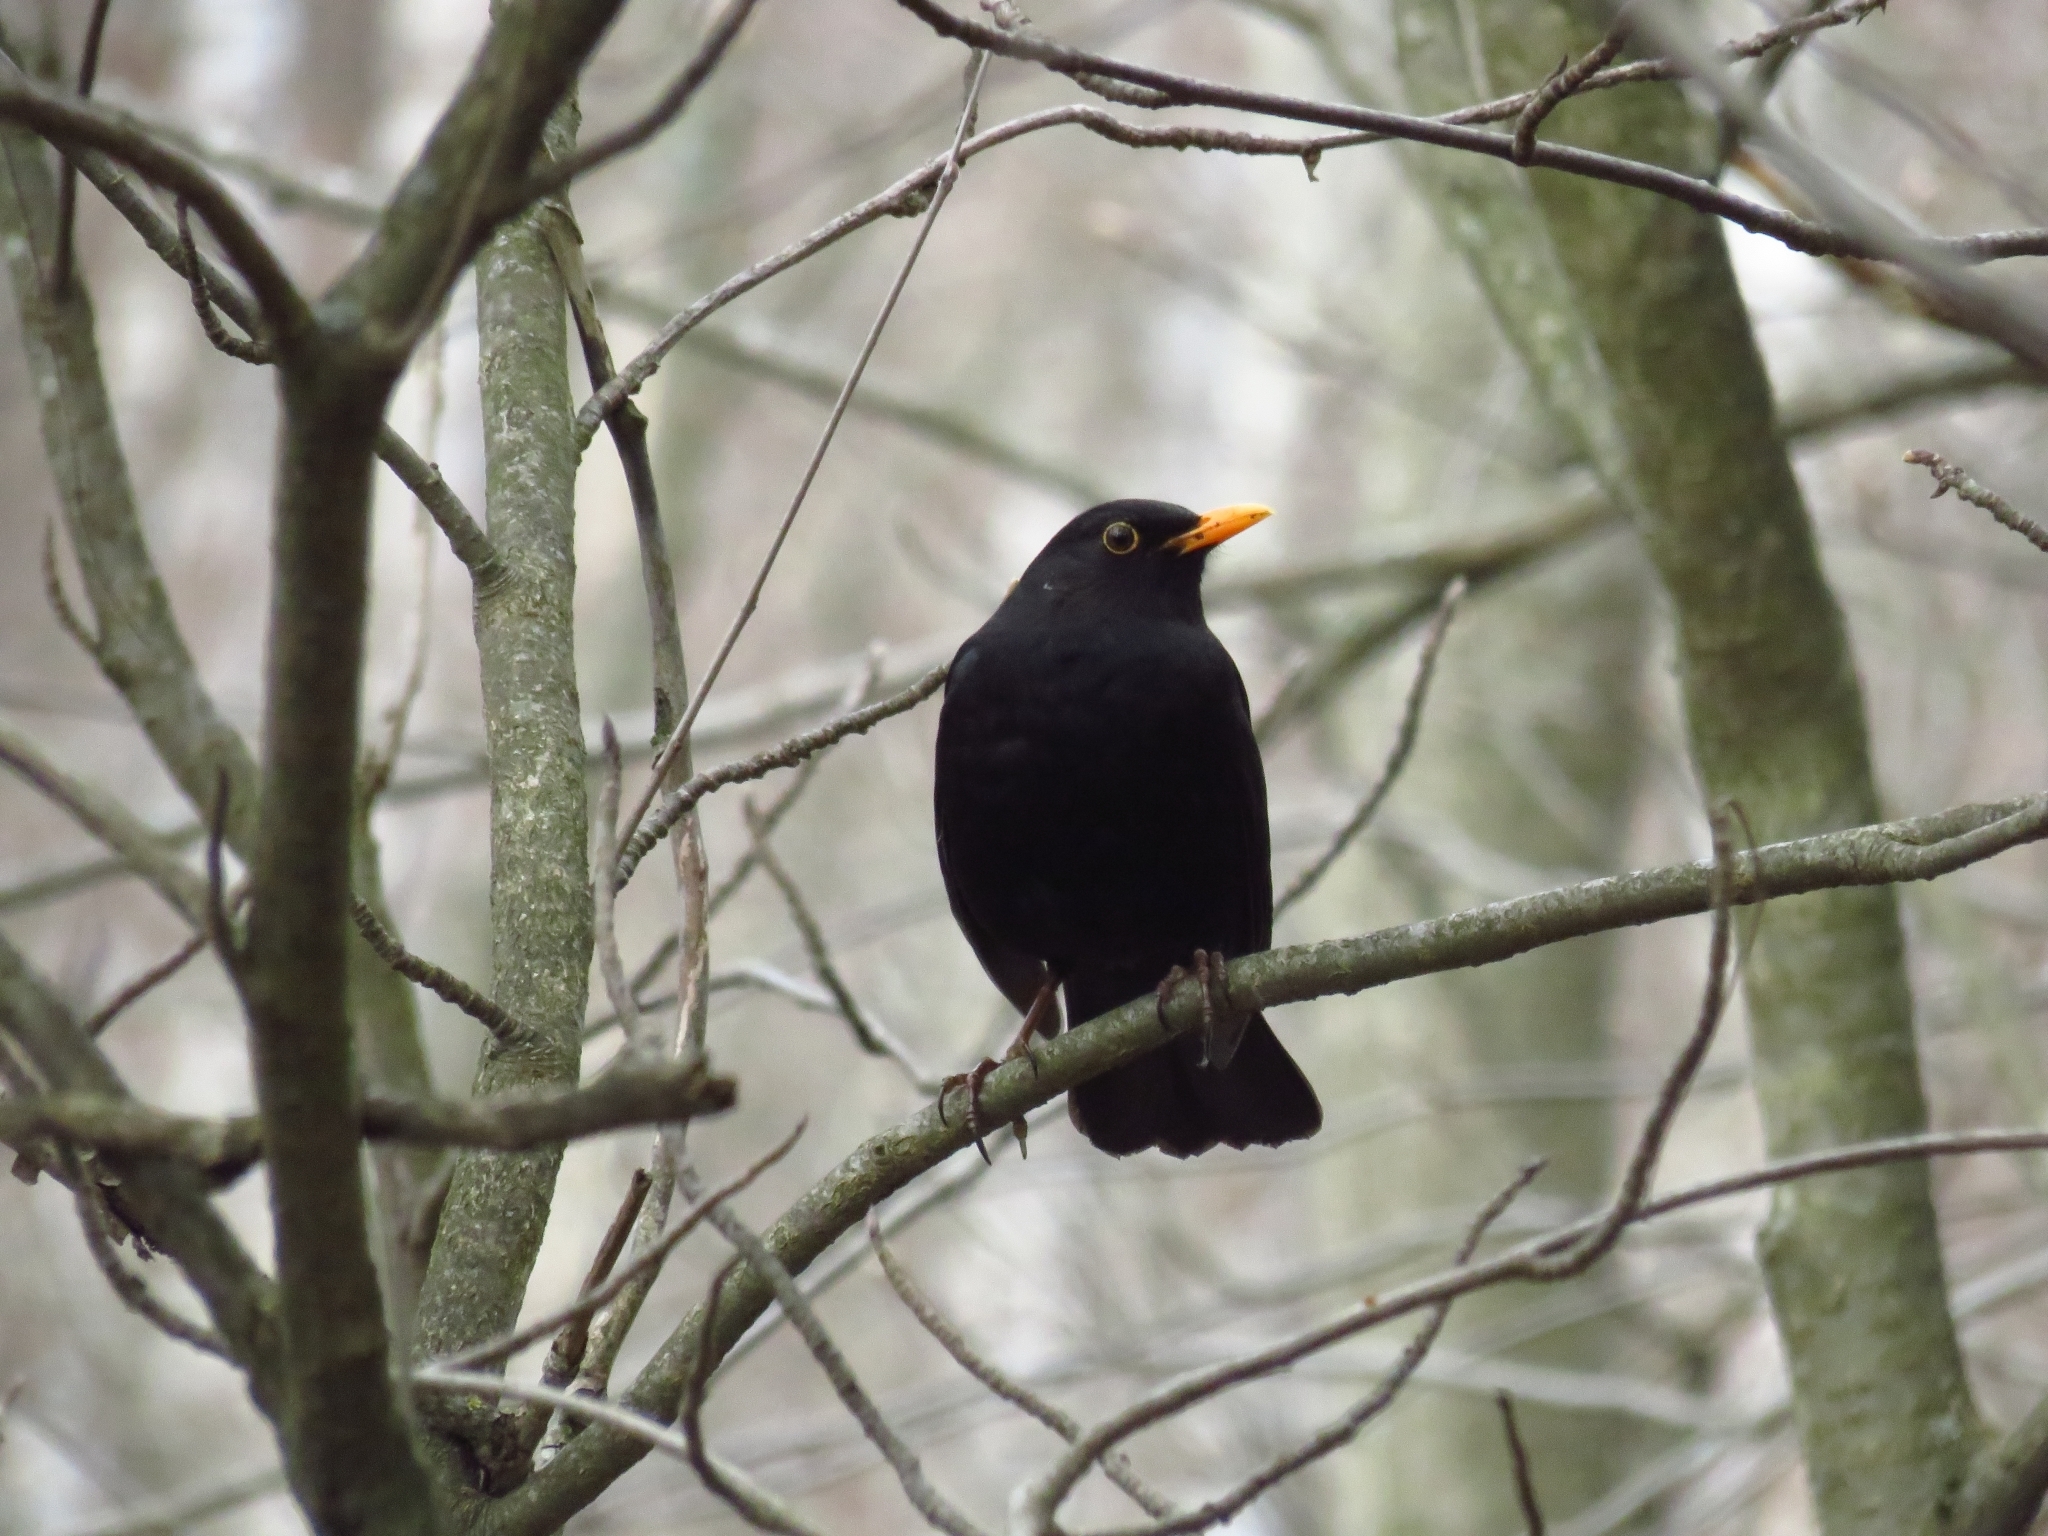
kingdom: Animalia
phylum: Chordata
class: Aves
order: Passeriformes
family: Turdidae
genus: Turdus
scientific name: Turdus merula
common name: Common blackbird
